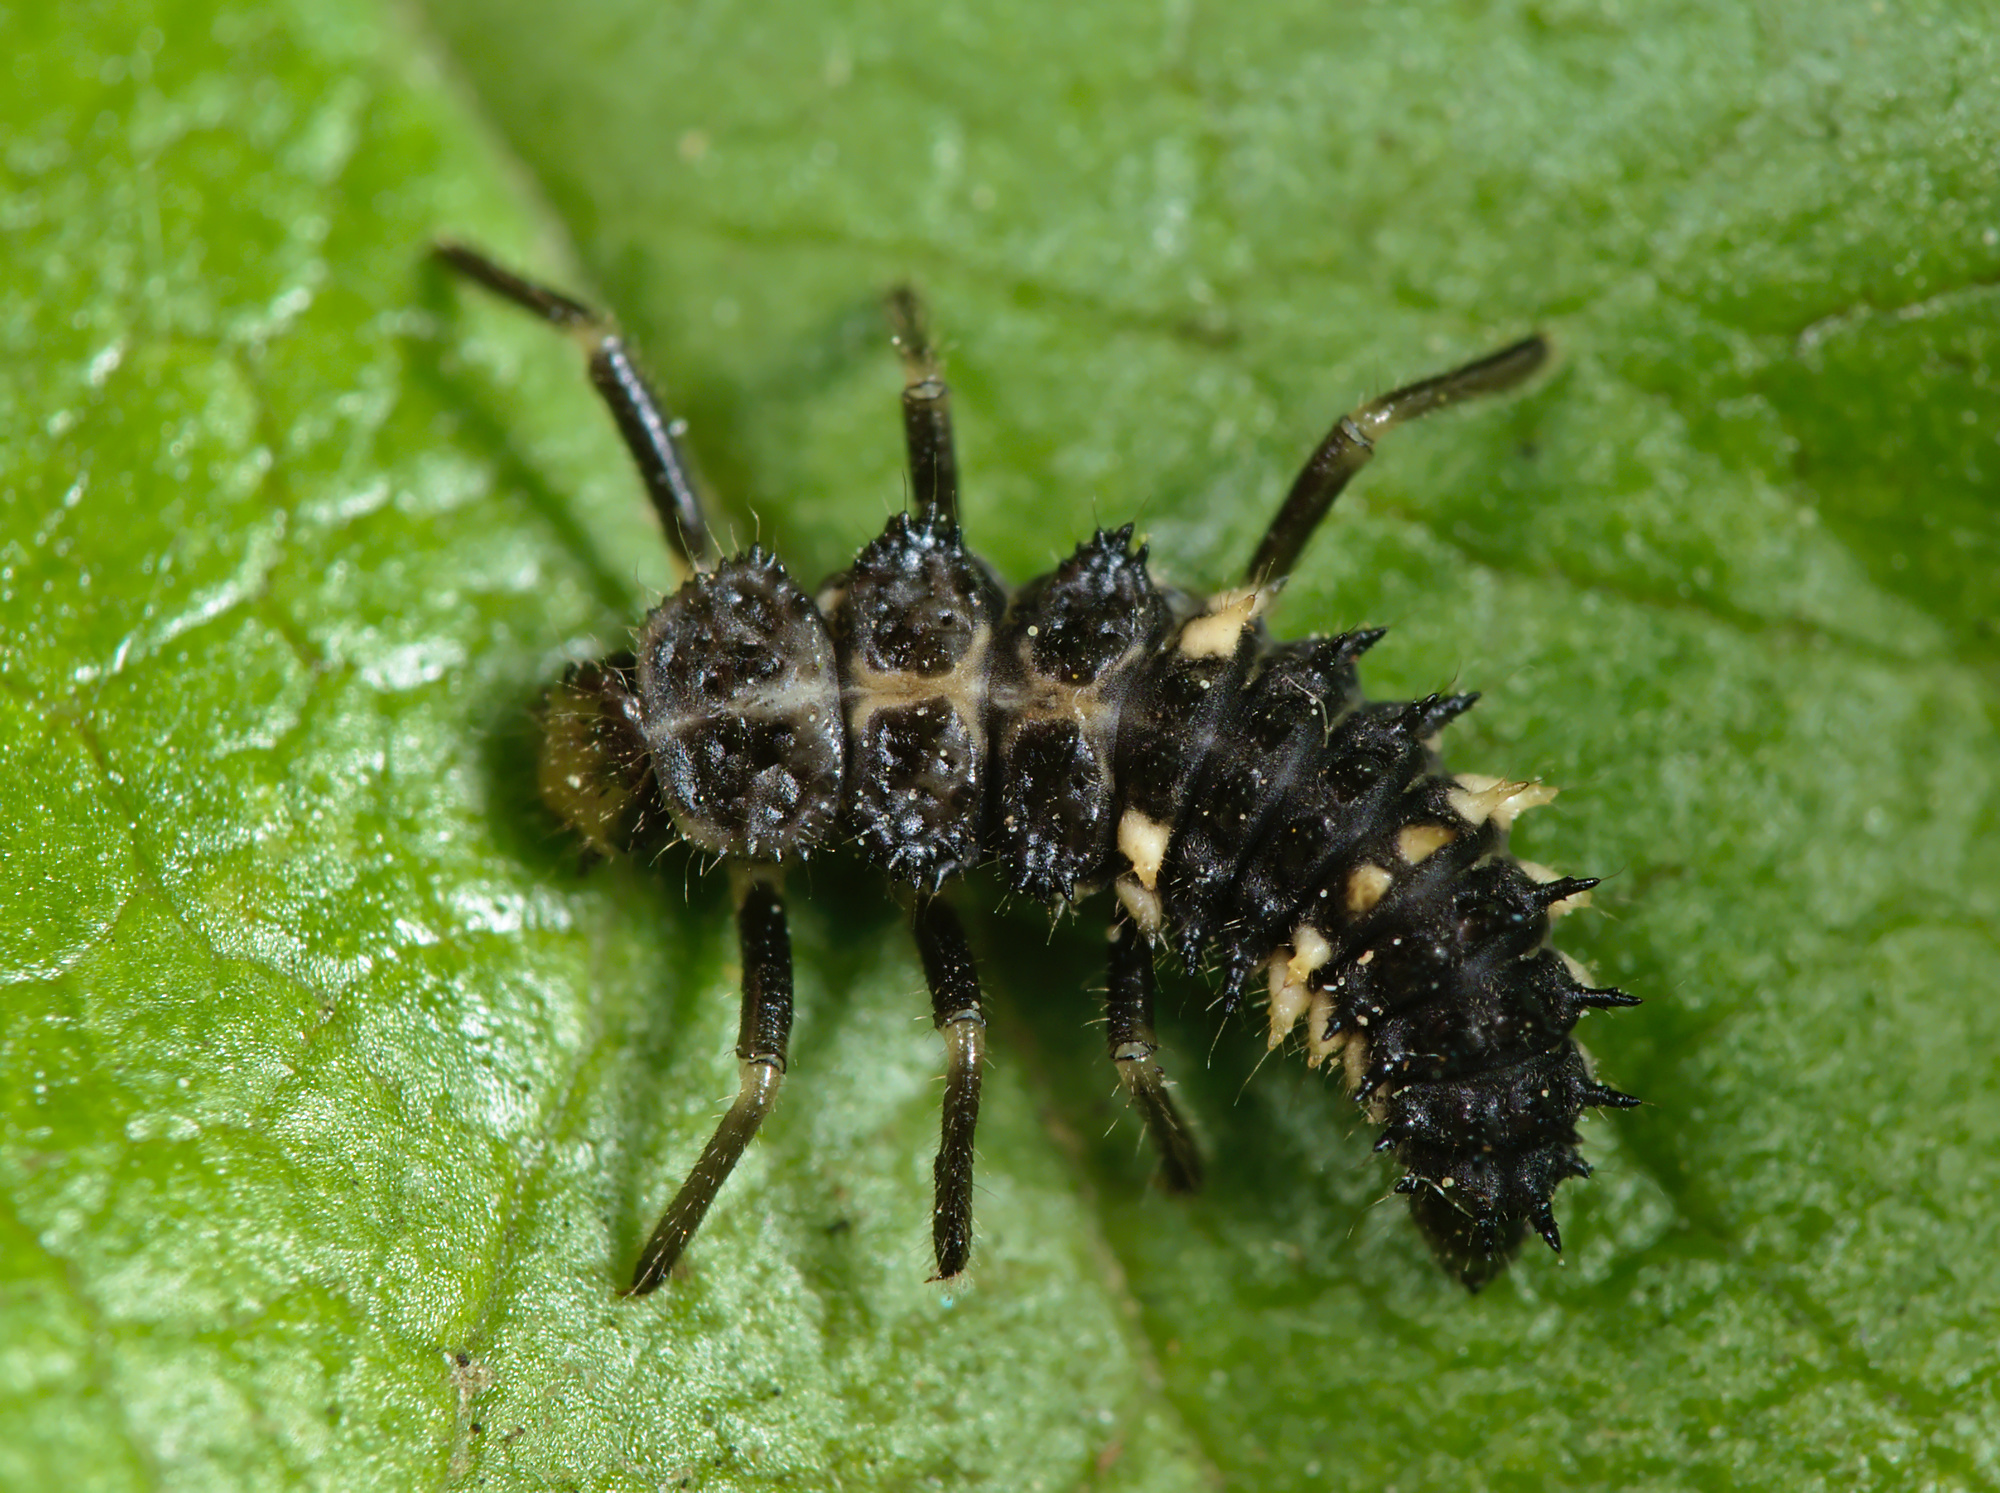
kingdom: Animalia
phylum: Arthropoda
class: Insecta
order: Coleoptera
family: Coccinellidae
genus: Calvia
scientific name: Calvia quatuordecimguttata
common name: Cream-spot ladybird
